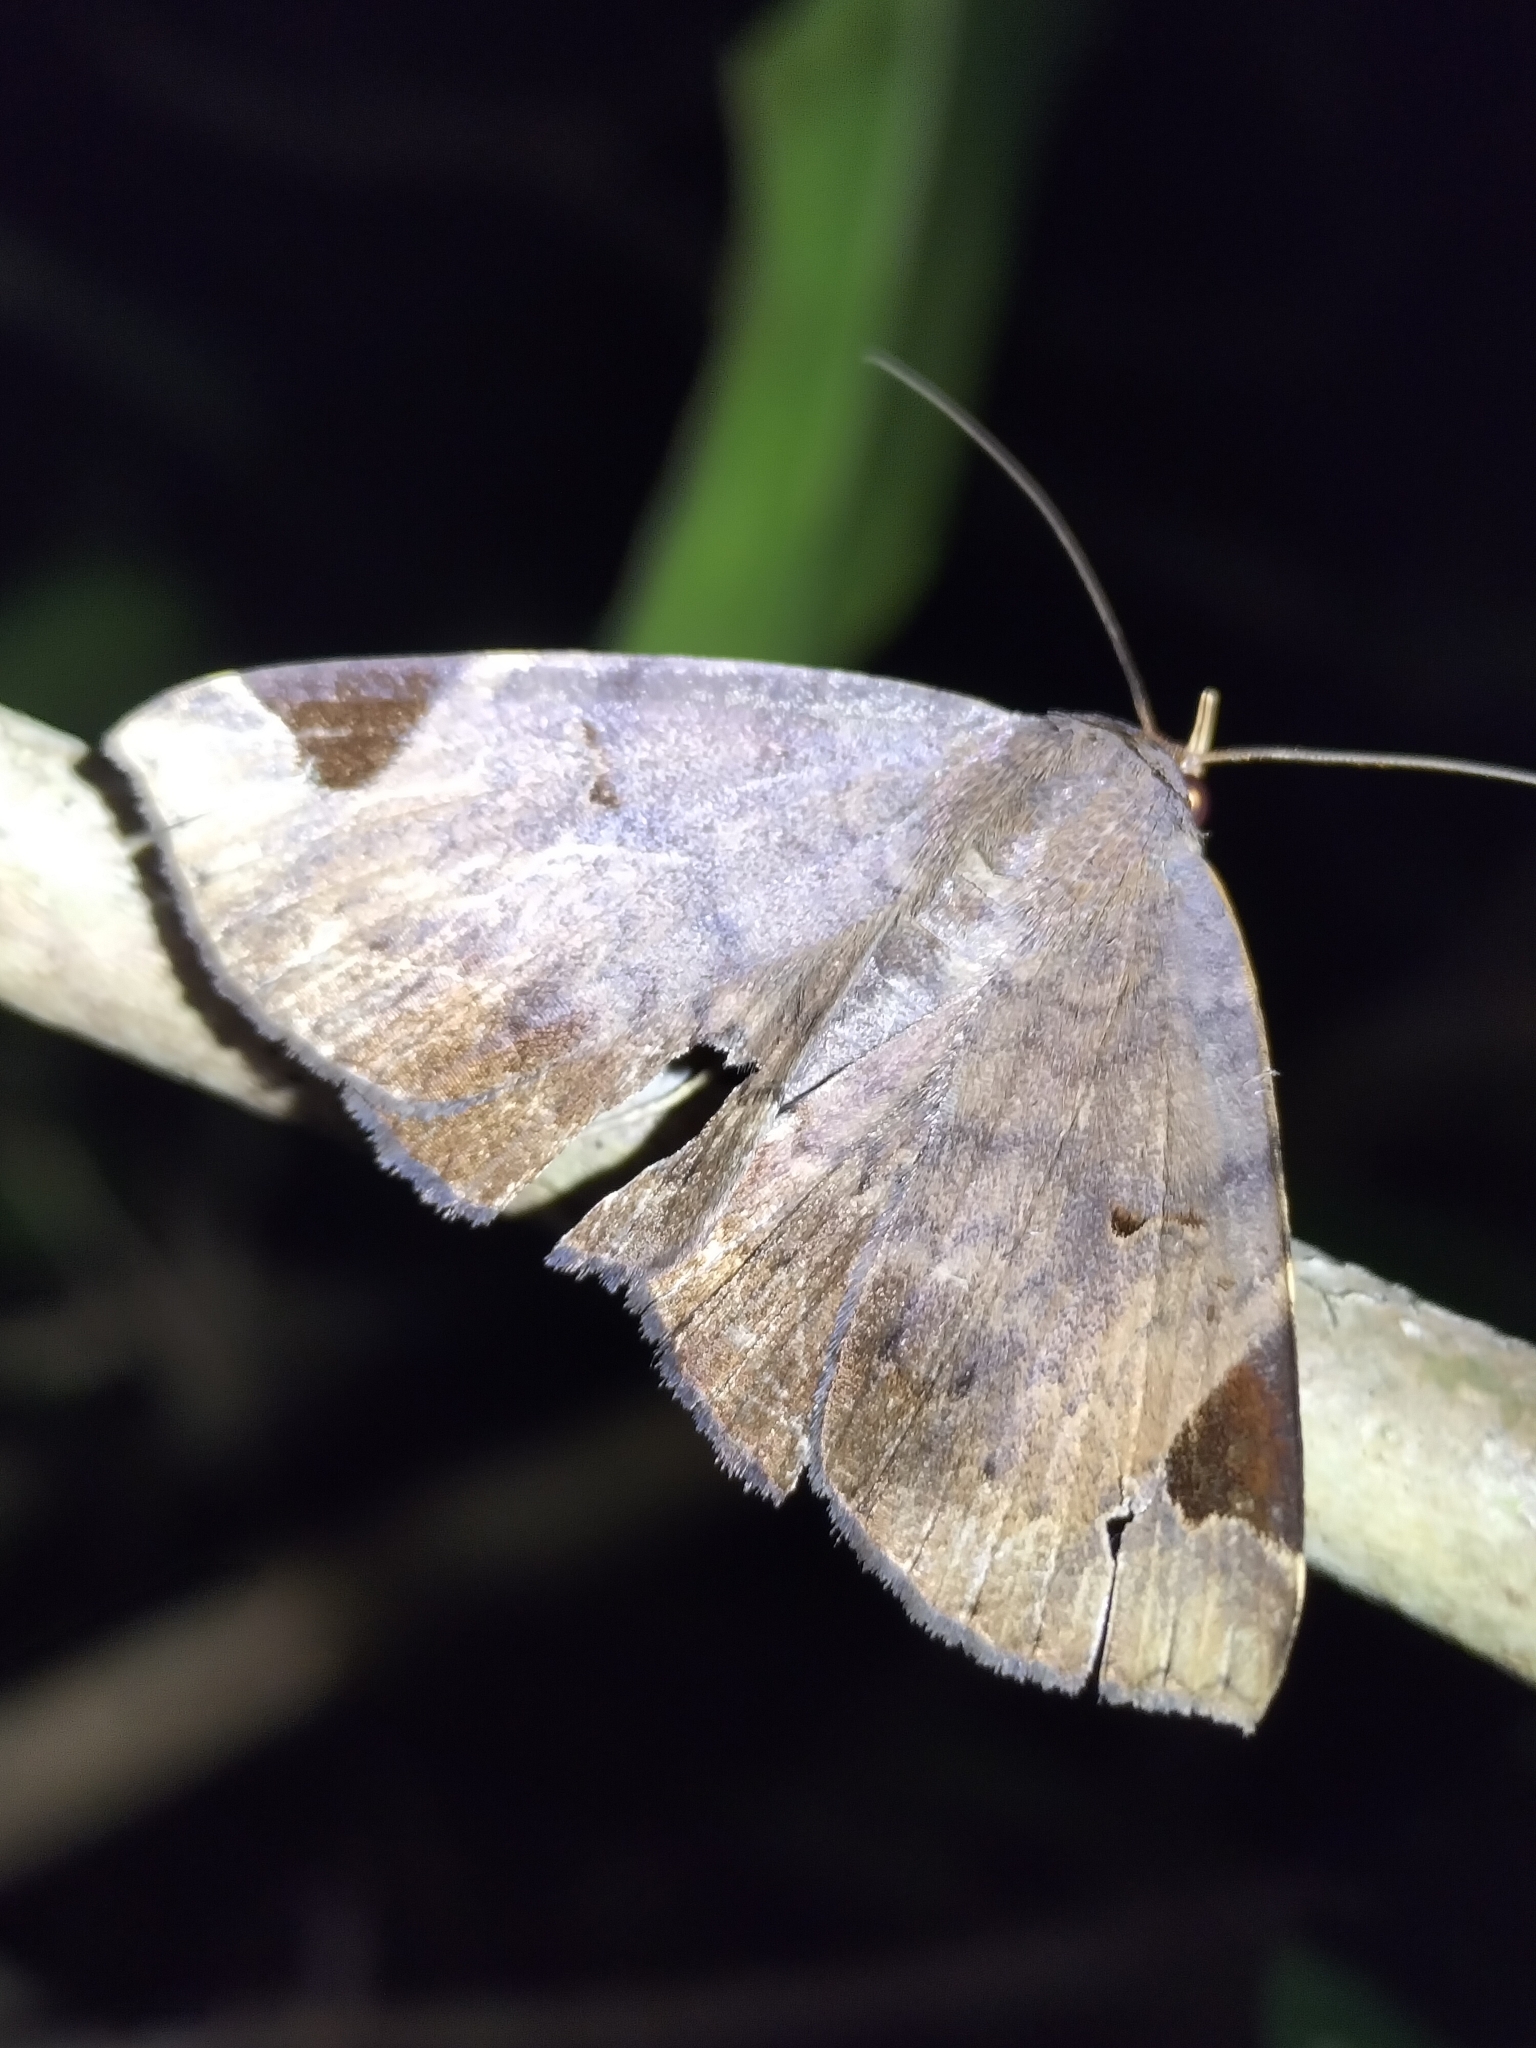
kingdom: Animalia
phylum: Arthropoda
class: Insecta
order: Lepidoptera
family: Erebidae
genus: Mecodina
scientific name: Mecodina praecipua
